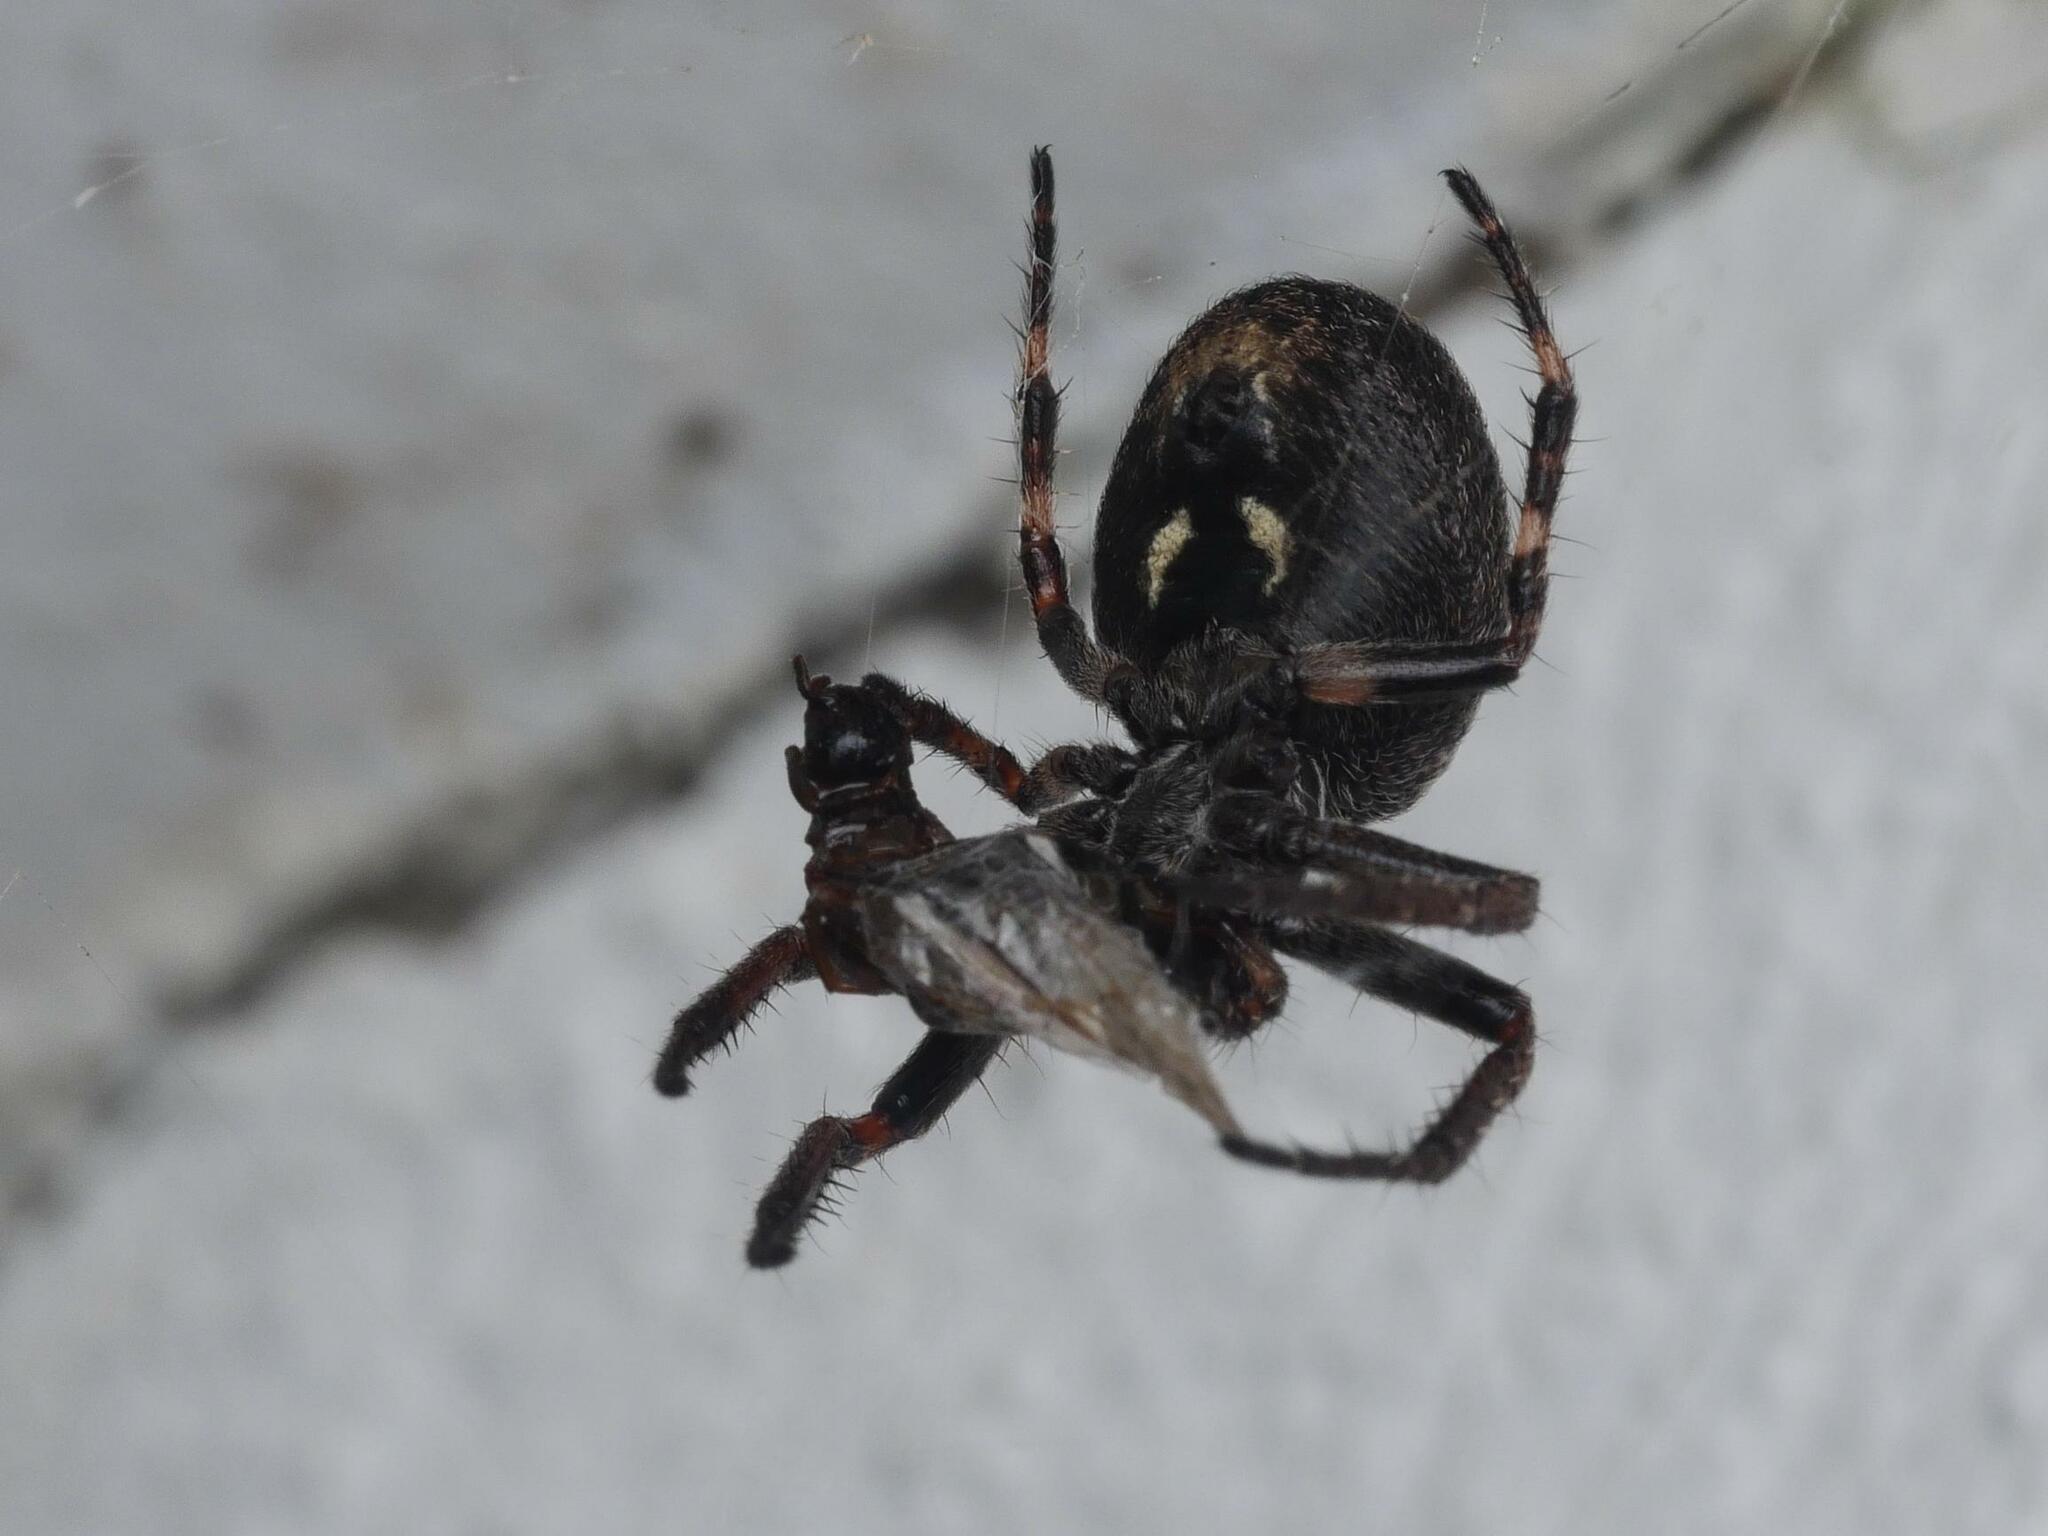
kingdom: Animalia
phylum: Arthropoda
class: Arachnida
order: Araneae
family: Araneidae
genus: Nuctenea
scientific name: Nuctenea umbratica
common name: Toad spider
